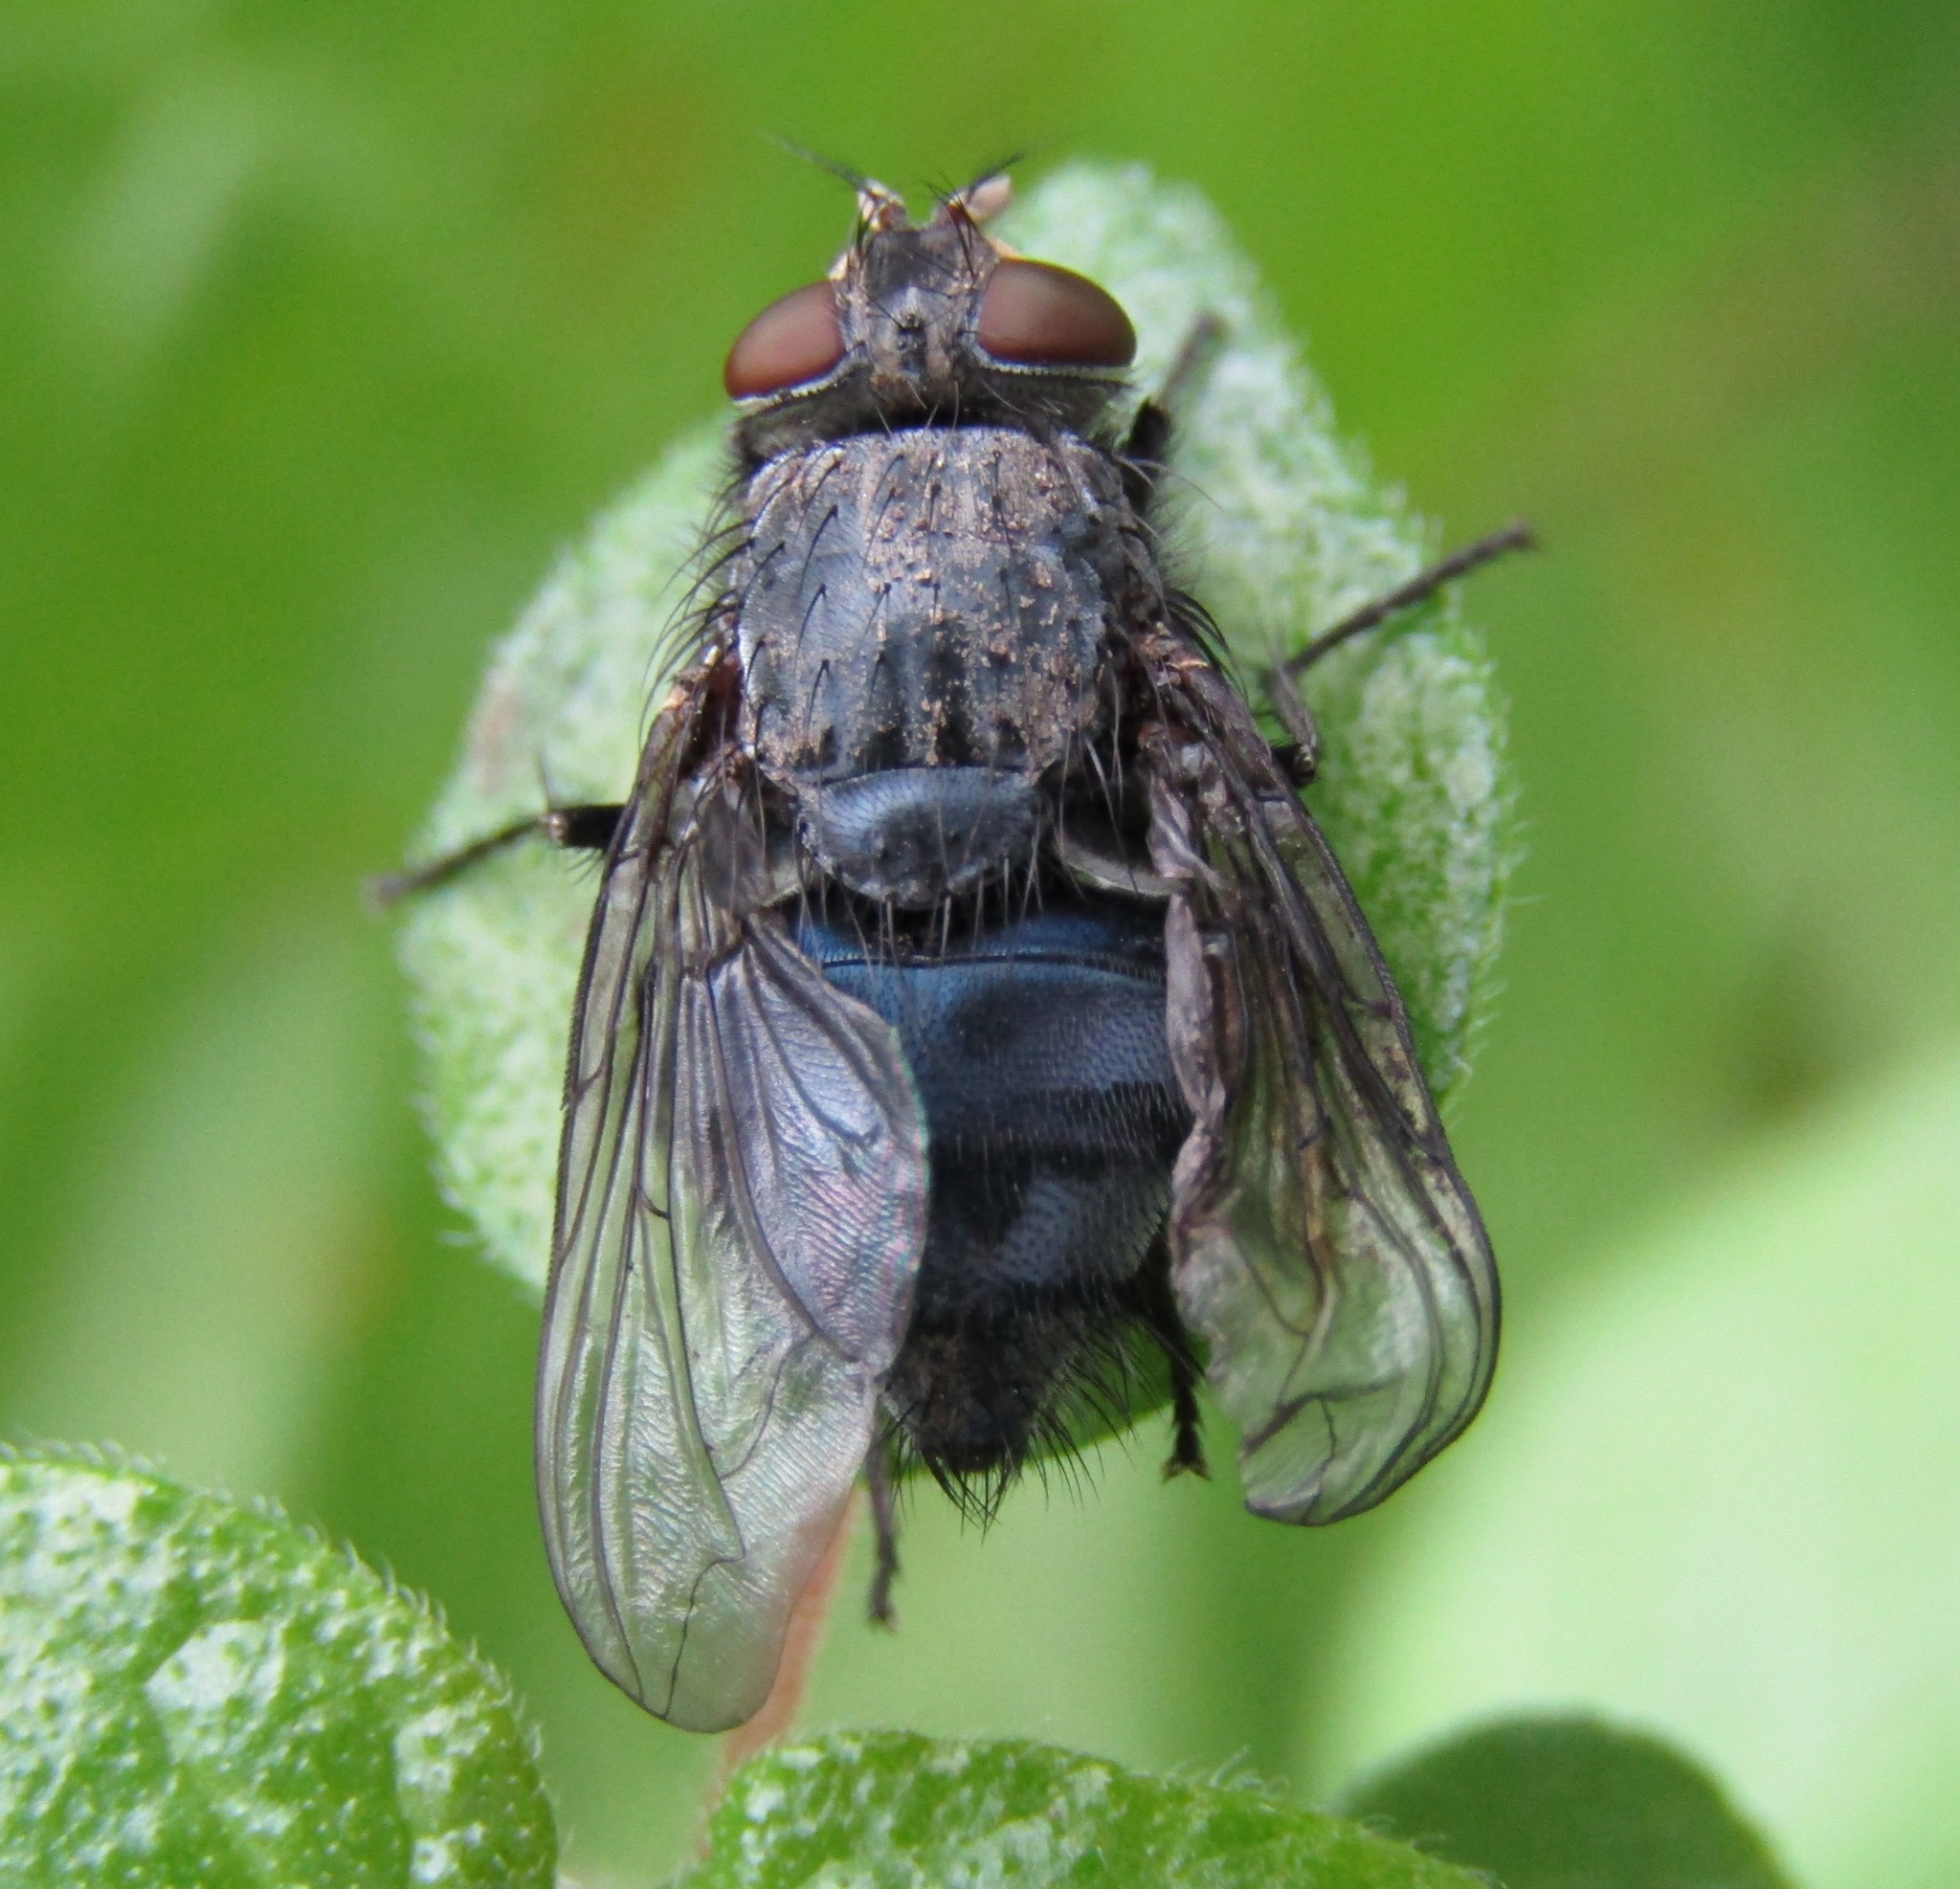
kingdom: Animalia
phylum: Arthropoda
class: Insecta
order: Diptera
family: Calliphoridae
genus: Calliphora
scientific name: Calliphora vicina
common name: Common blow flie
